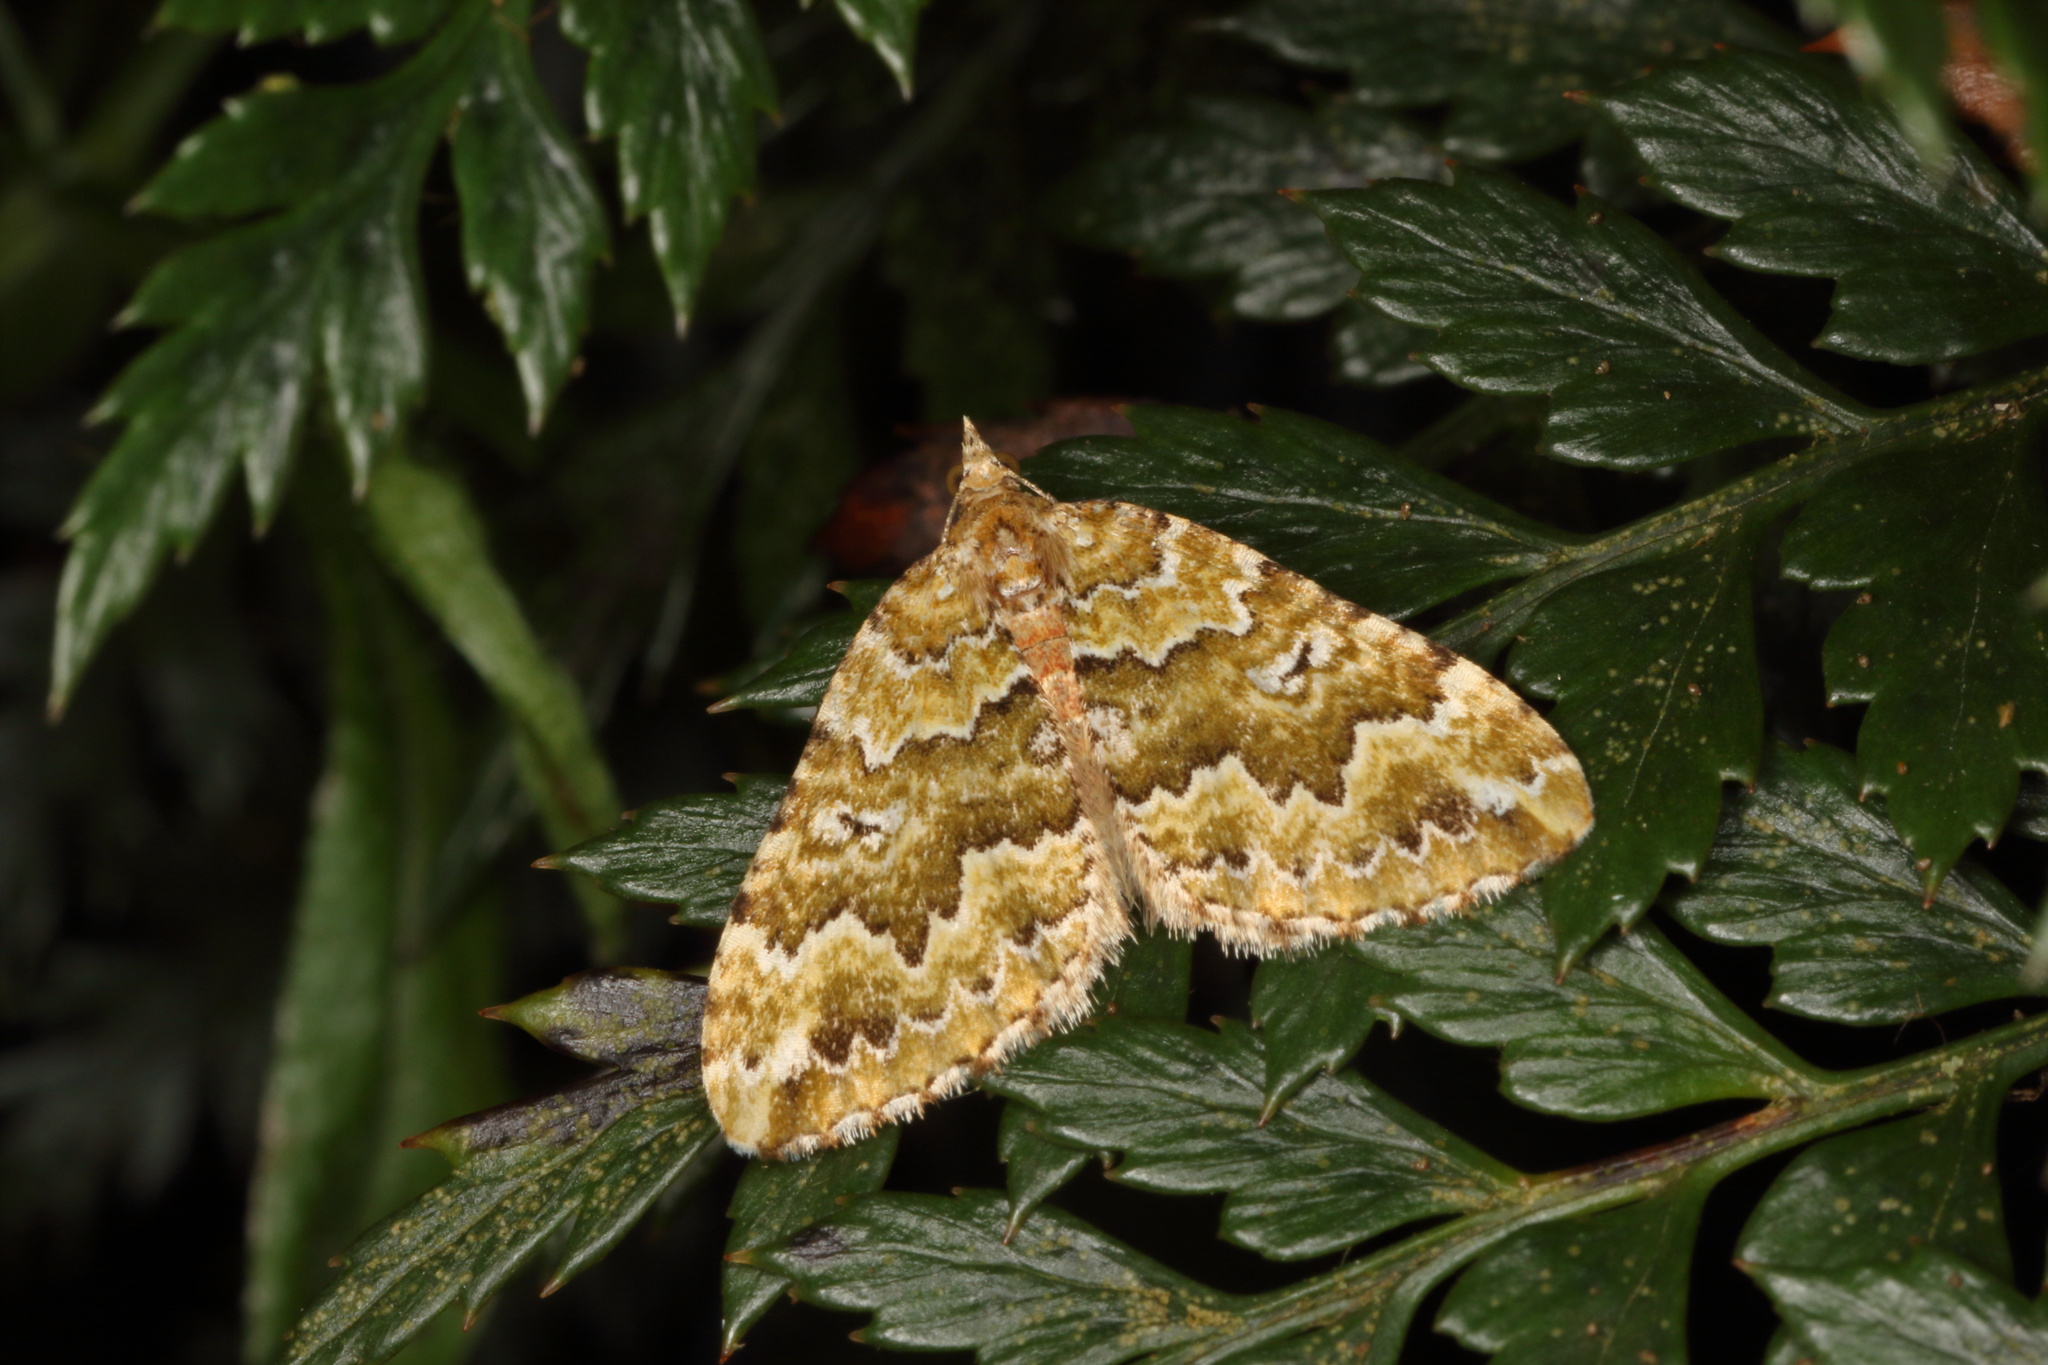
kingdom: Animalia
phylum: Arthropoda
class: Insecta
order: Lepidoptera
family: Geometridae
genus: Asaphodes
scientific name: Asaphodes beata
